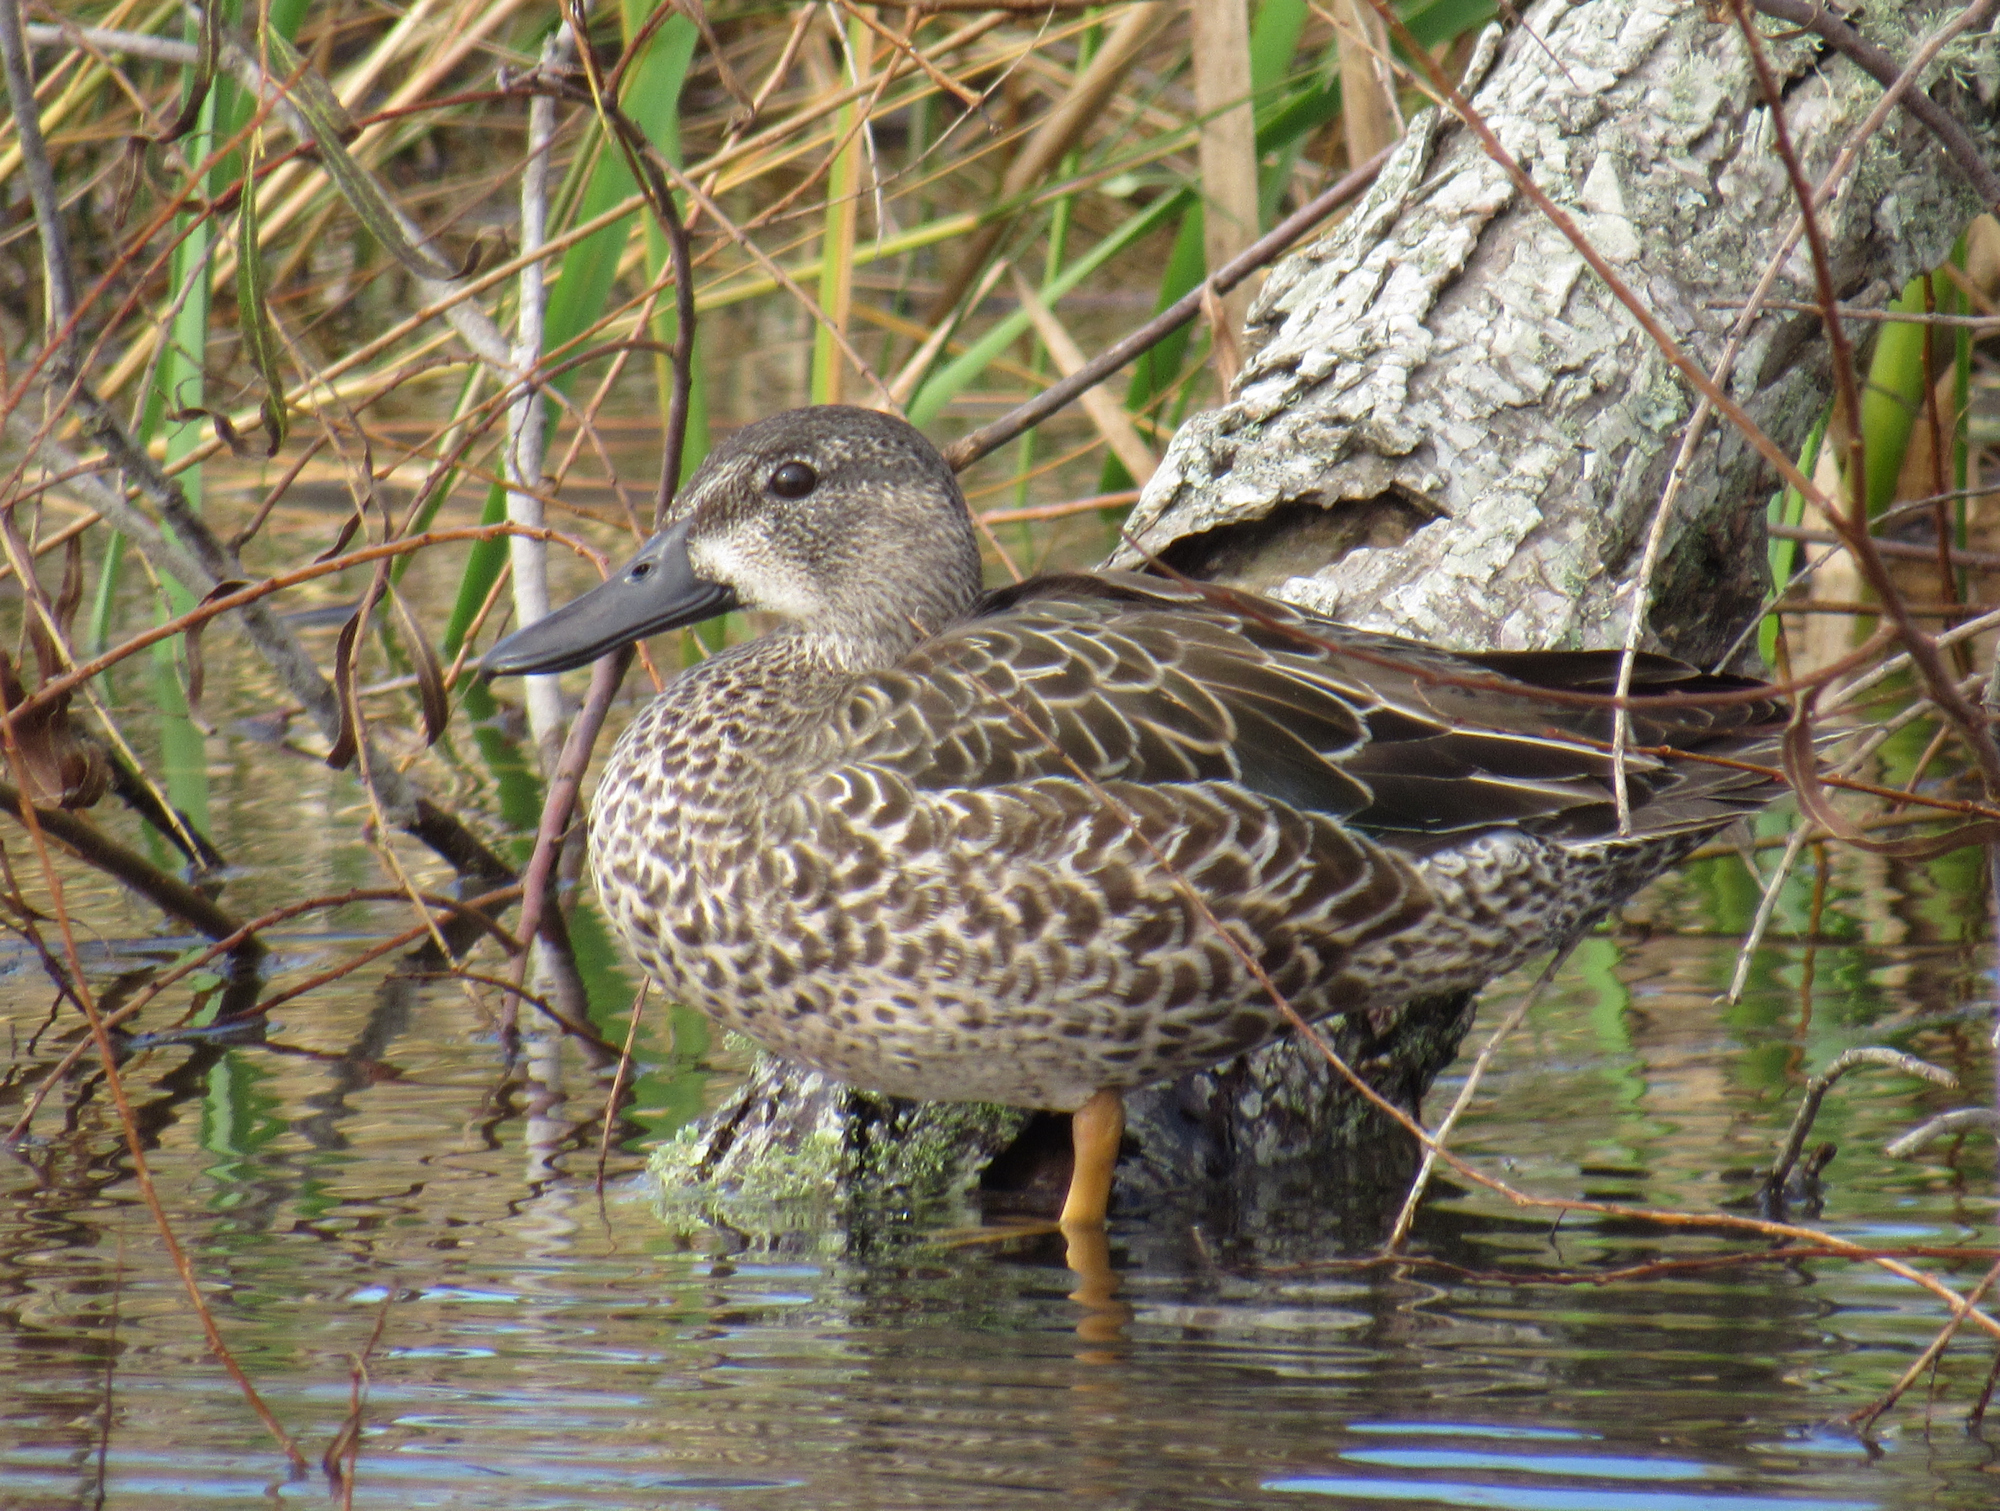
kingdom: Animalia
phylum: Chordata
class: Aves
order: Anseriformes
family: Anatidae
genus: Spatula
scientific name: Spatula discors
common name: Blue-winged teal
